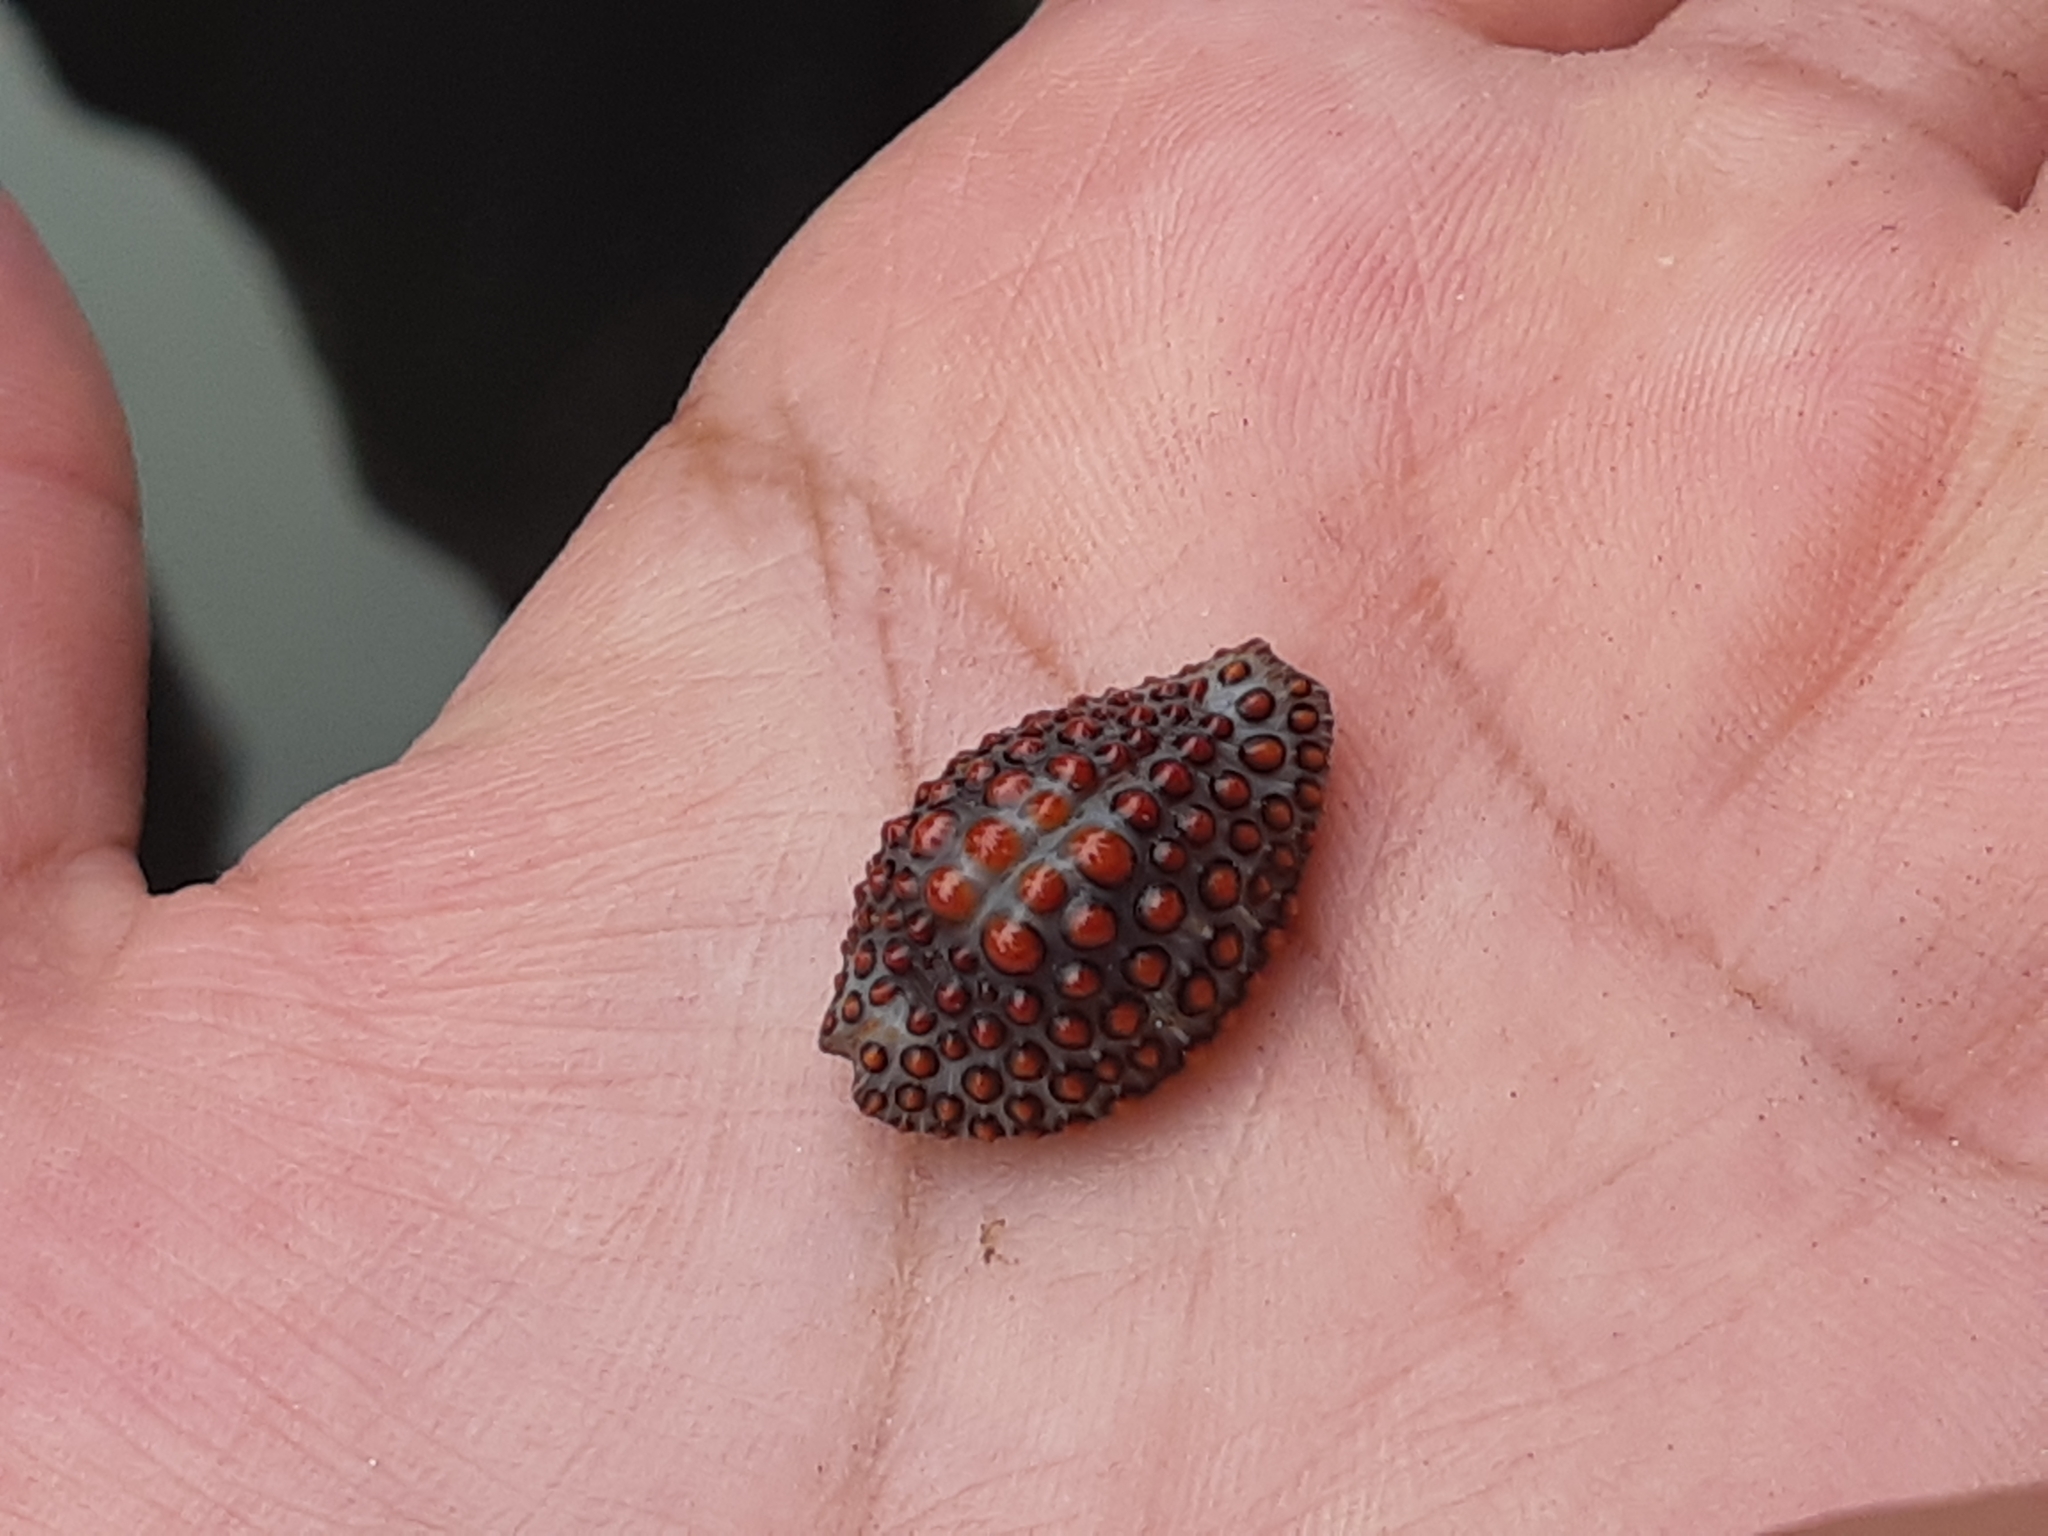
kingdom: Animalia
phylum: Mollusca
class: Gastropoda
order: Littorinimorpha
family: Pediculariidae
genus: Jenneria
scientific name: Jenneria pustulata
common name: Pustuled cowrie
